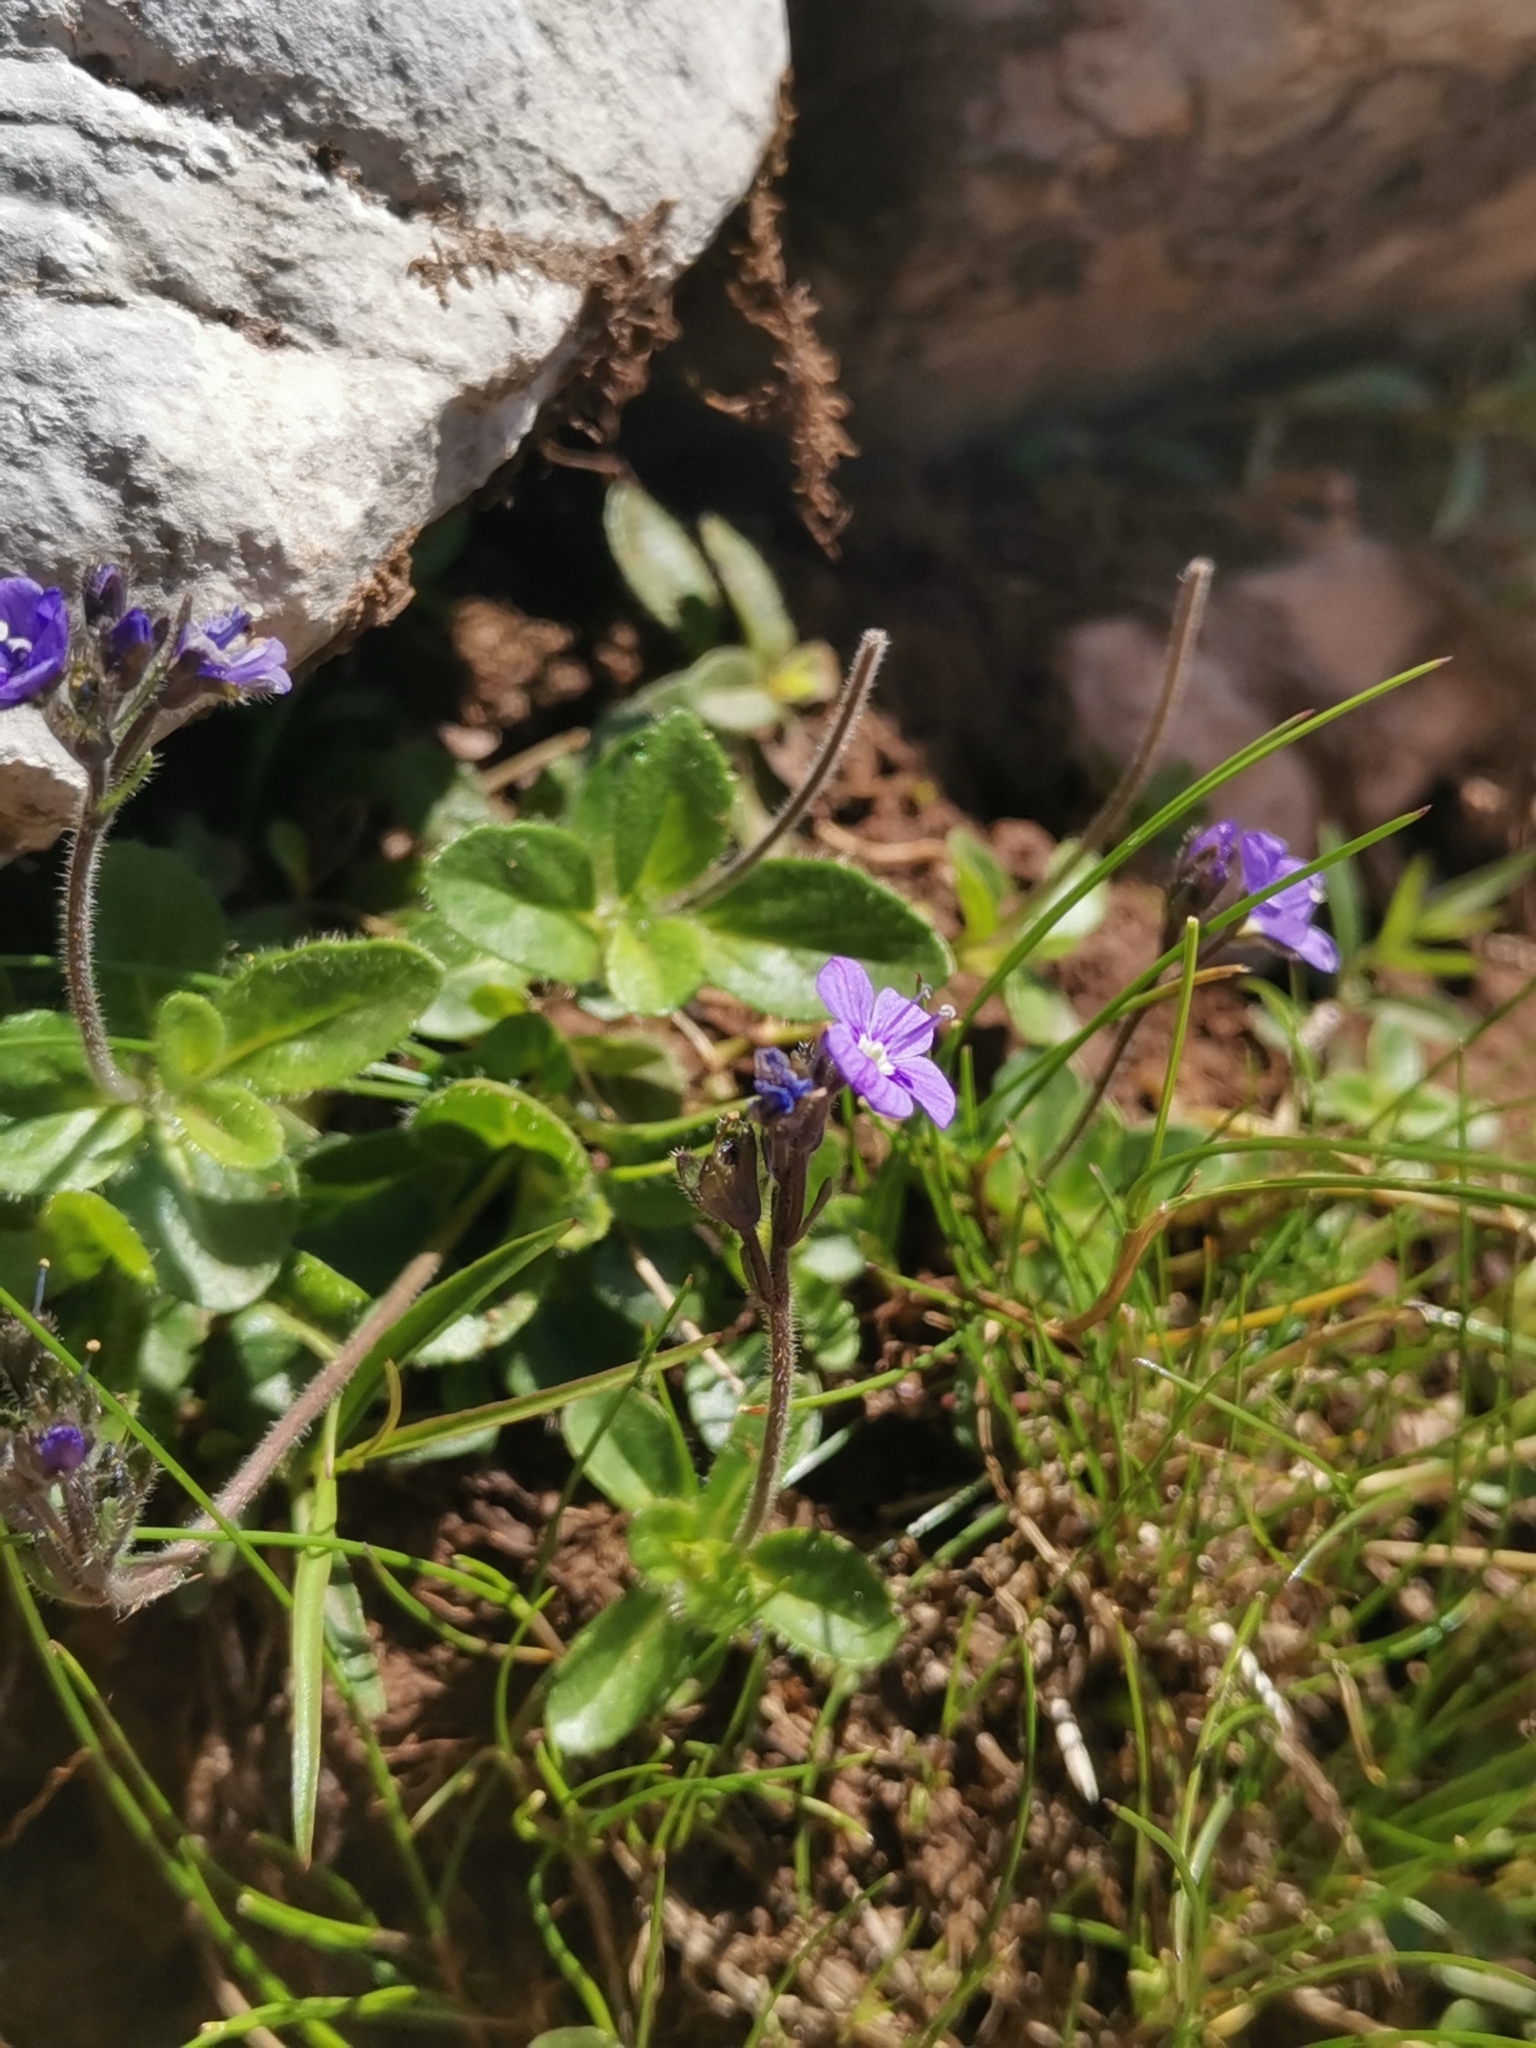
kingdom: Plantae
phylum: Tracheophyta
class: Magnoliopsida
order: Lamiales
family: Plantaginaceae
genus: Veronica
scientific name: Veronica aphylla
